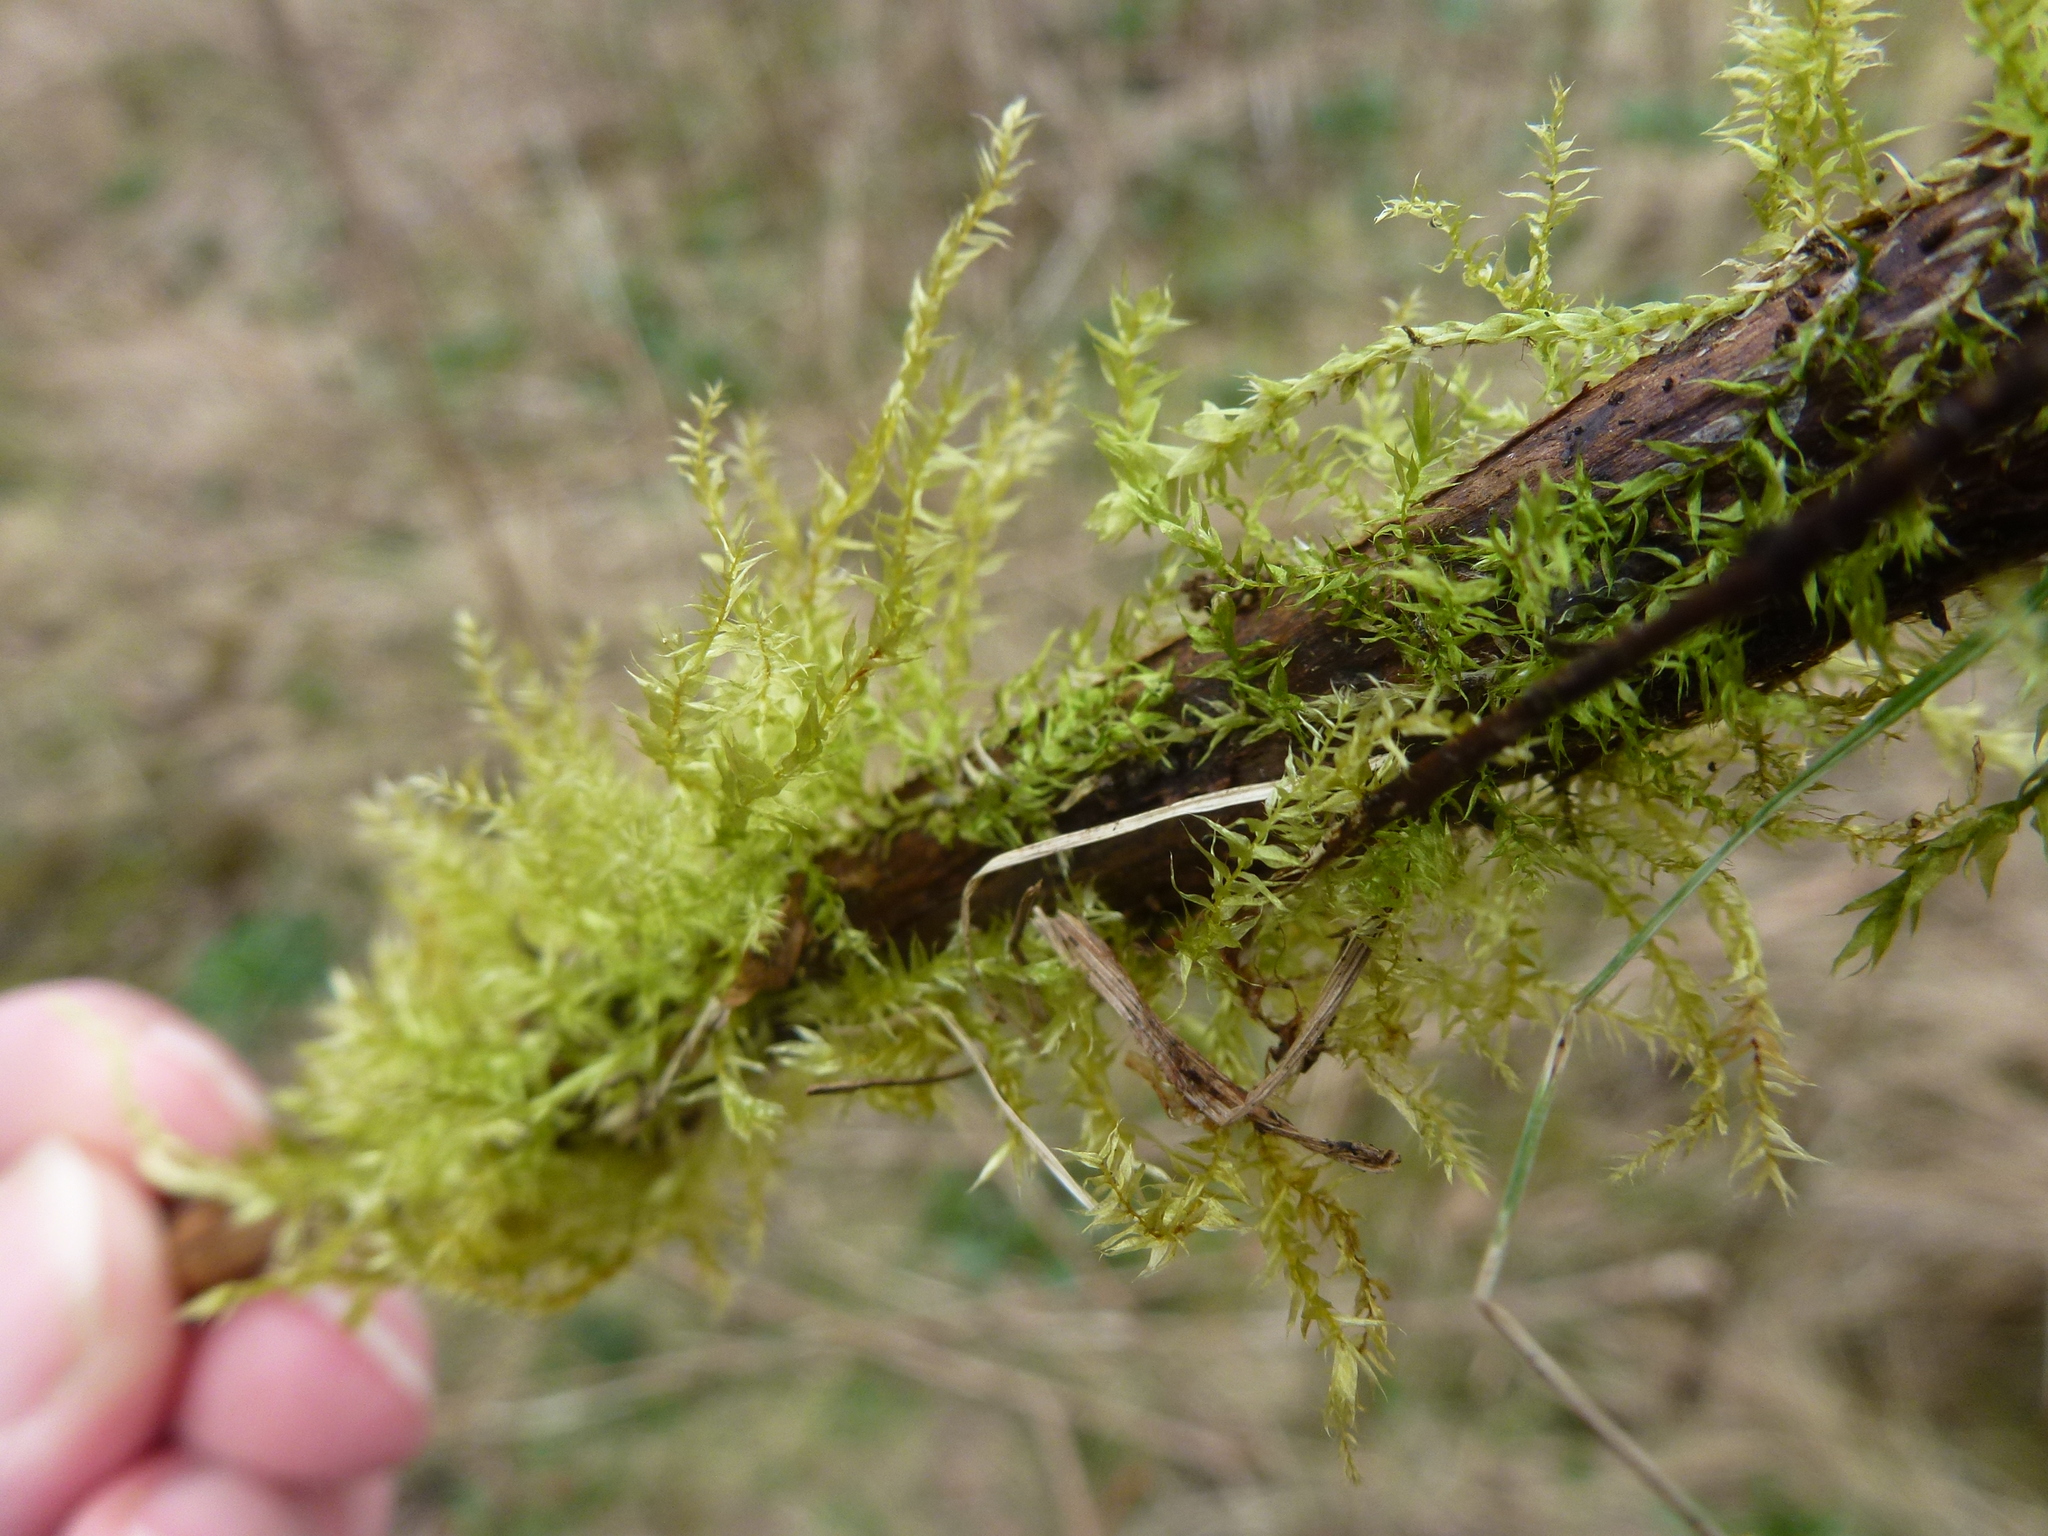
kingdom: Plantae
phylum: Bryophyta
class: Bryopsida
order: Hypnales
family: Pylaisiaceae
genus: Calliergonella
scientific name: Calliergonella cuspidata
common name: Common large wetland moss
